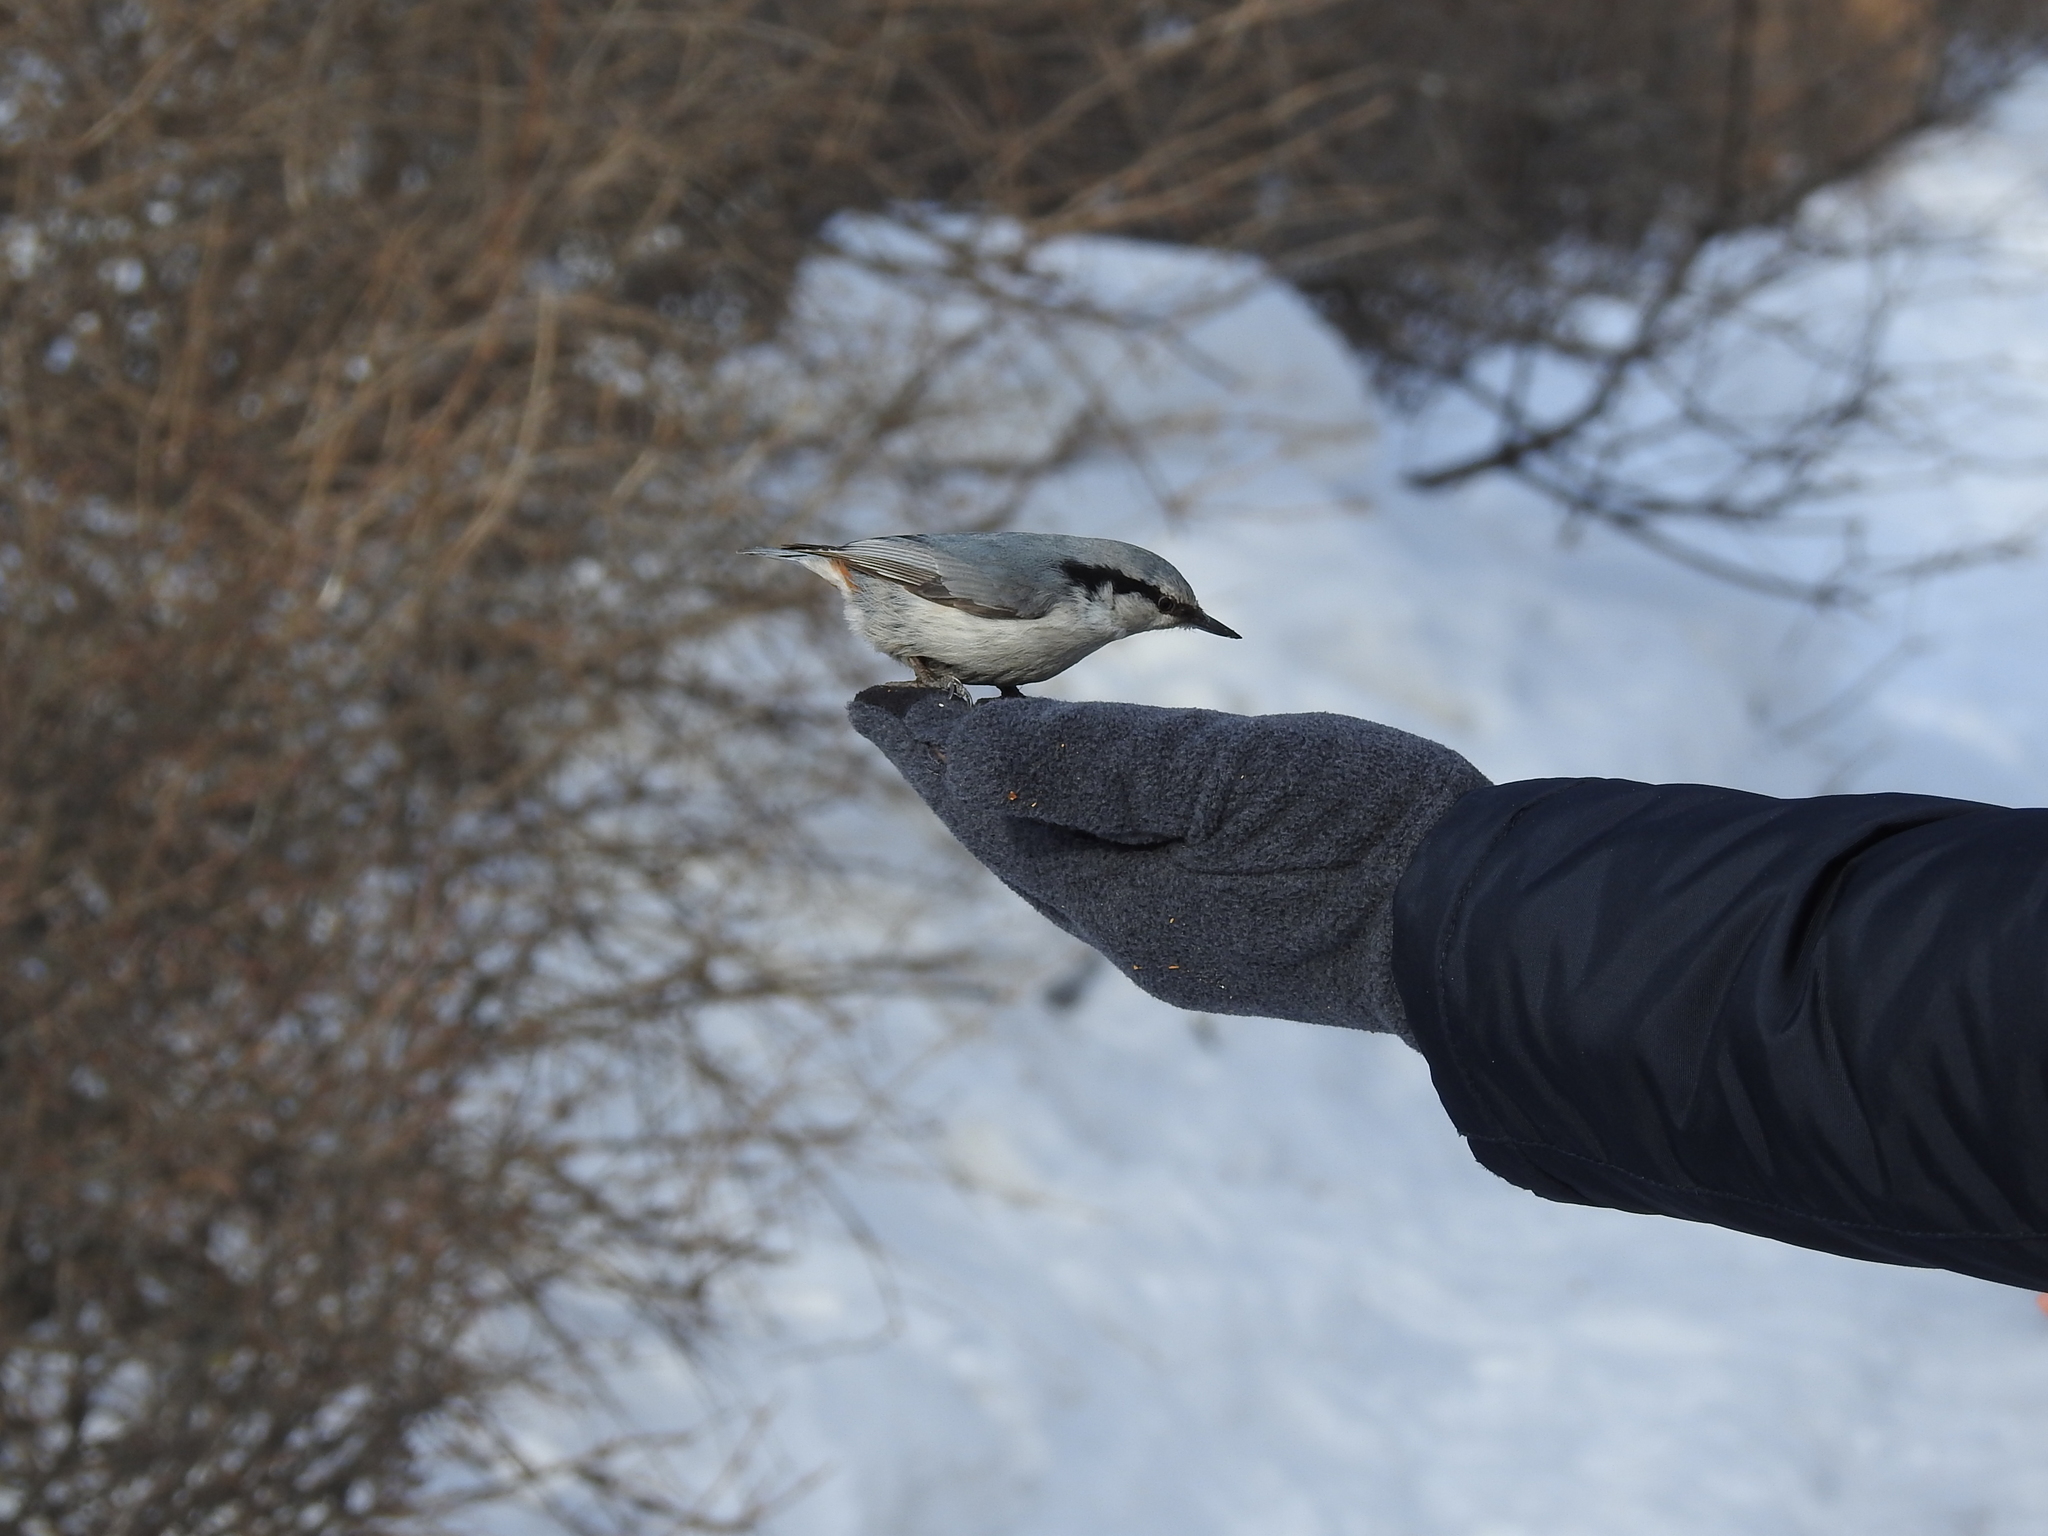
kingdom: Animalia
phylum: Chordata
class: Aves
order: Passeriformes
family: Sittidae
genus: Sitta
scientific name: Sitta europaea
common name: Eurasian nuthatch
